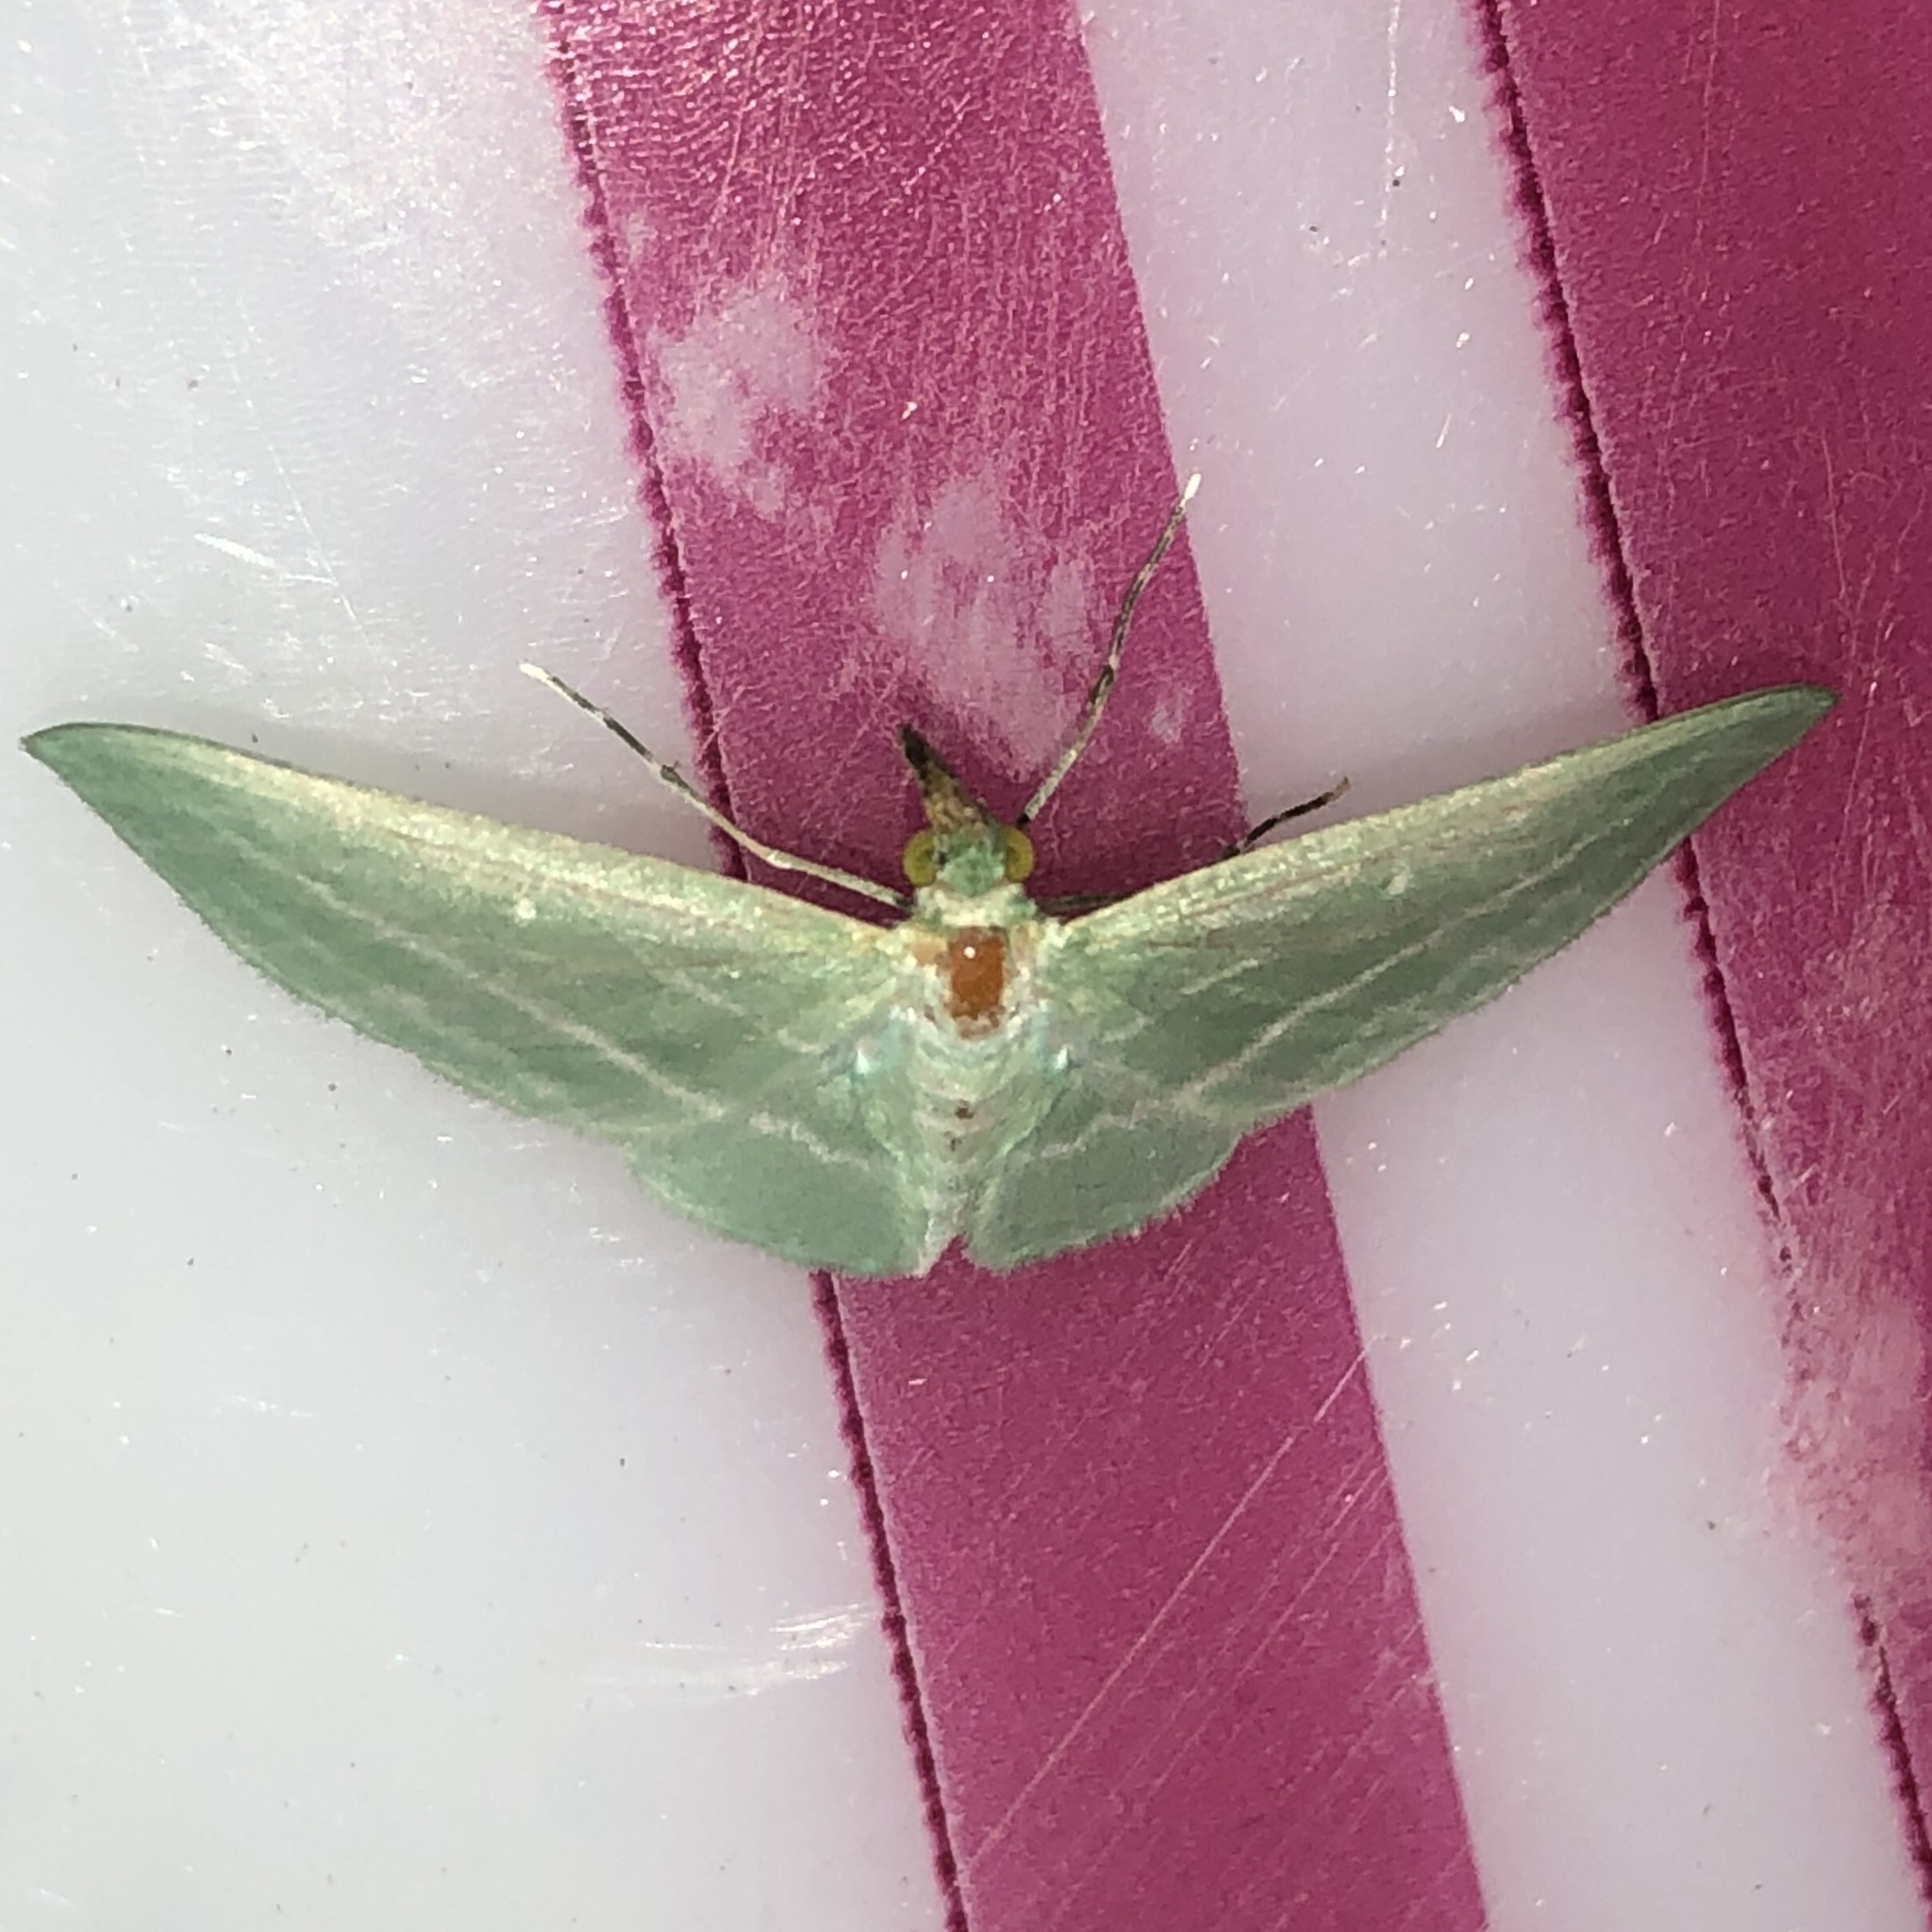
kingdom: Animalia
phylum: Arthropoda
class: Insecta
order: Lepidoptera
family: Geometridae
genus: Dyspteris
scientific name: Dyspteris abortivaria
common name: Bad-wing
